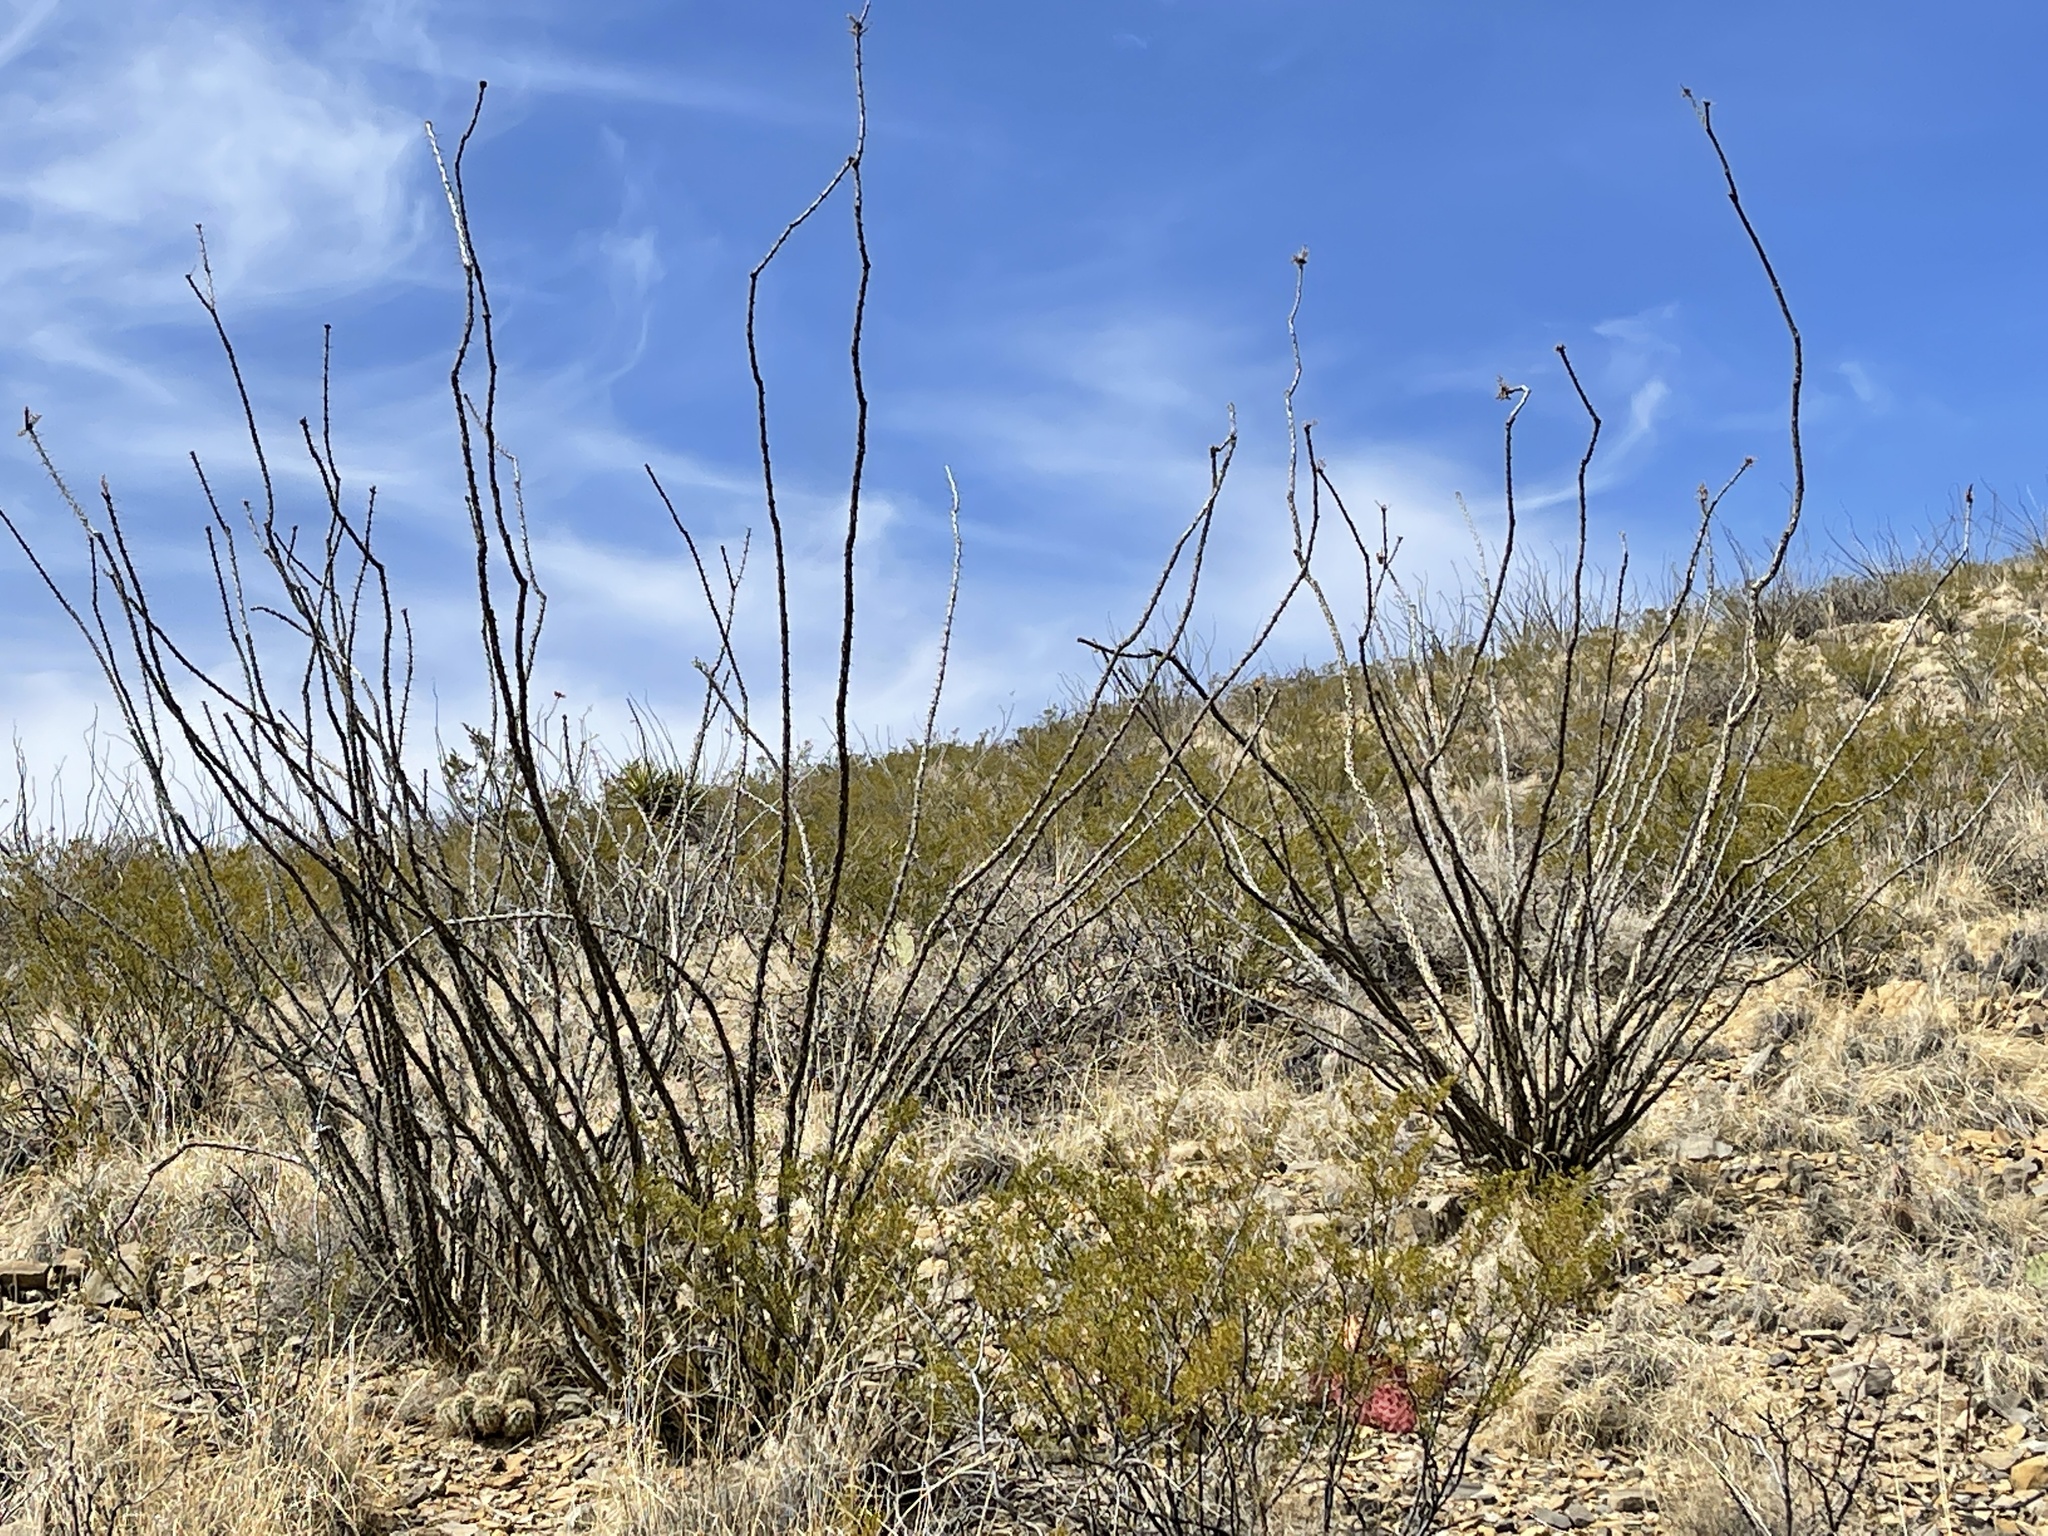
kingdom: Plantae
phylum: Tracheophyta
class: Magnoliopsida
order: Ericales
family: Fouquieriaceae
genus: Fouquieria
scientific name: Fouquieria splendens
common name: Vine-cactus
